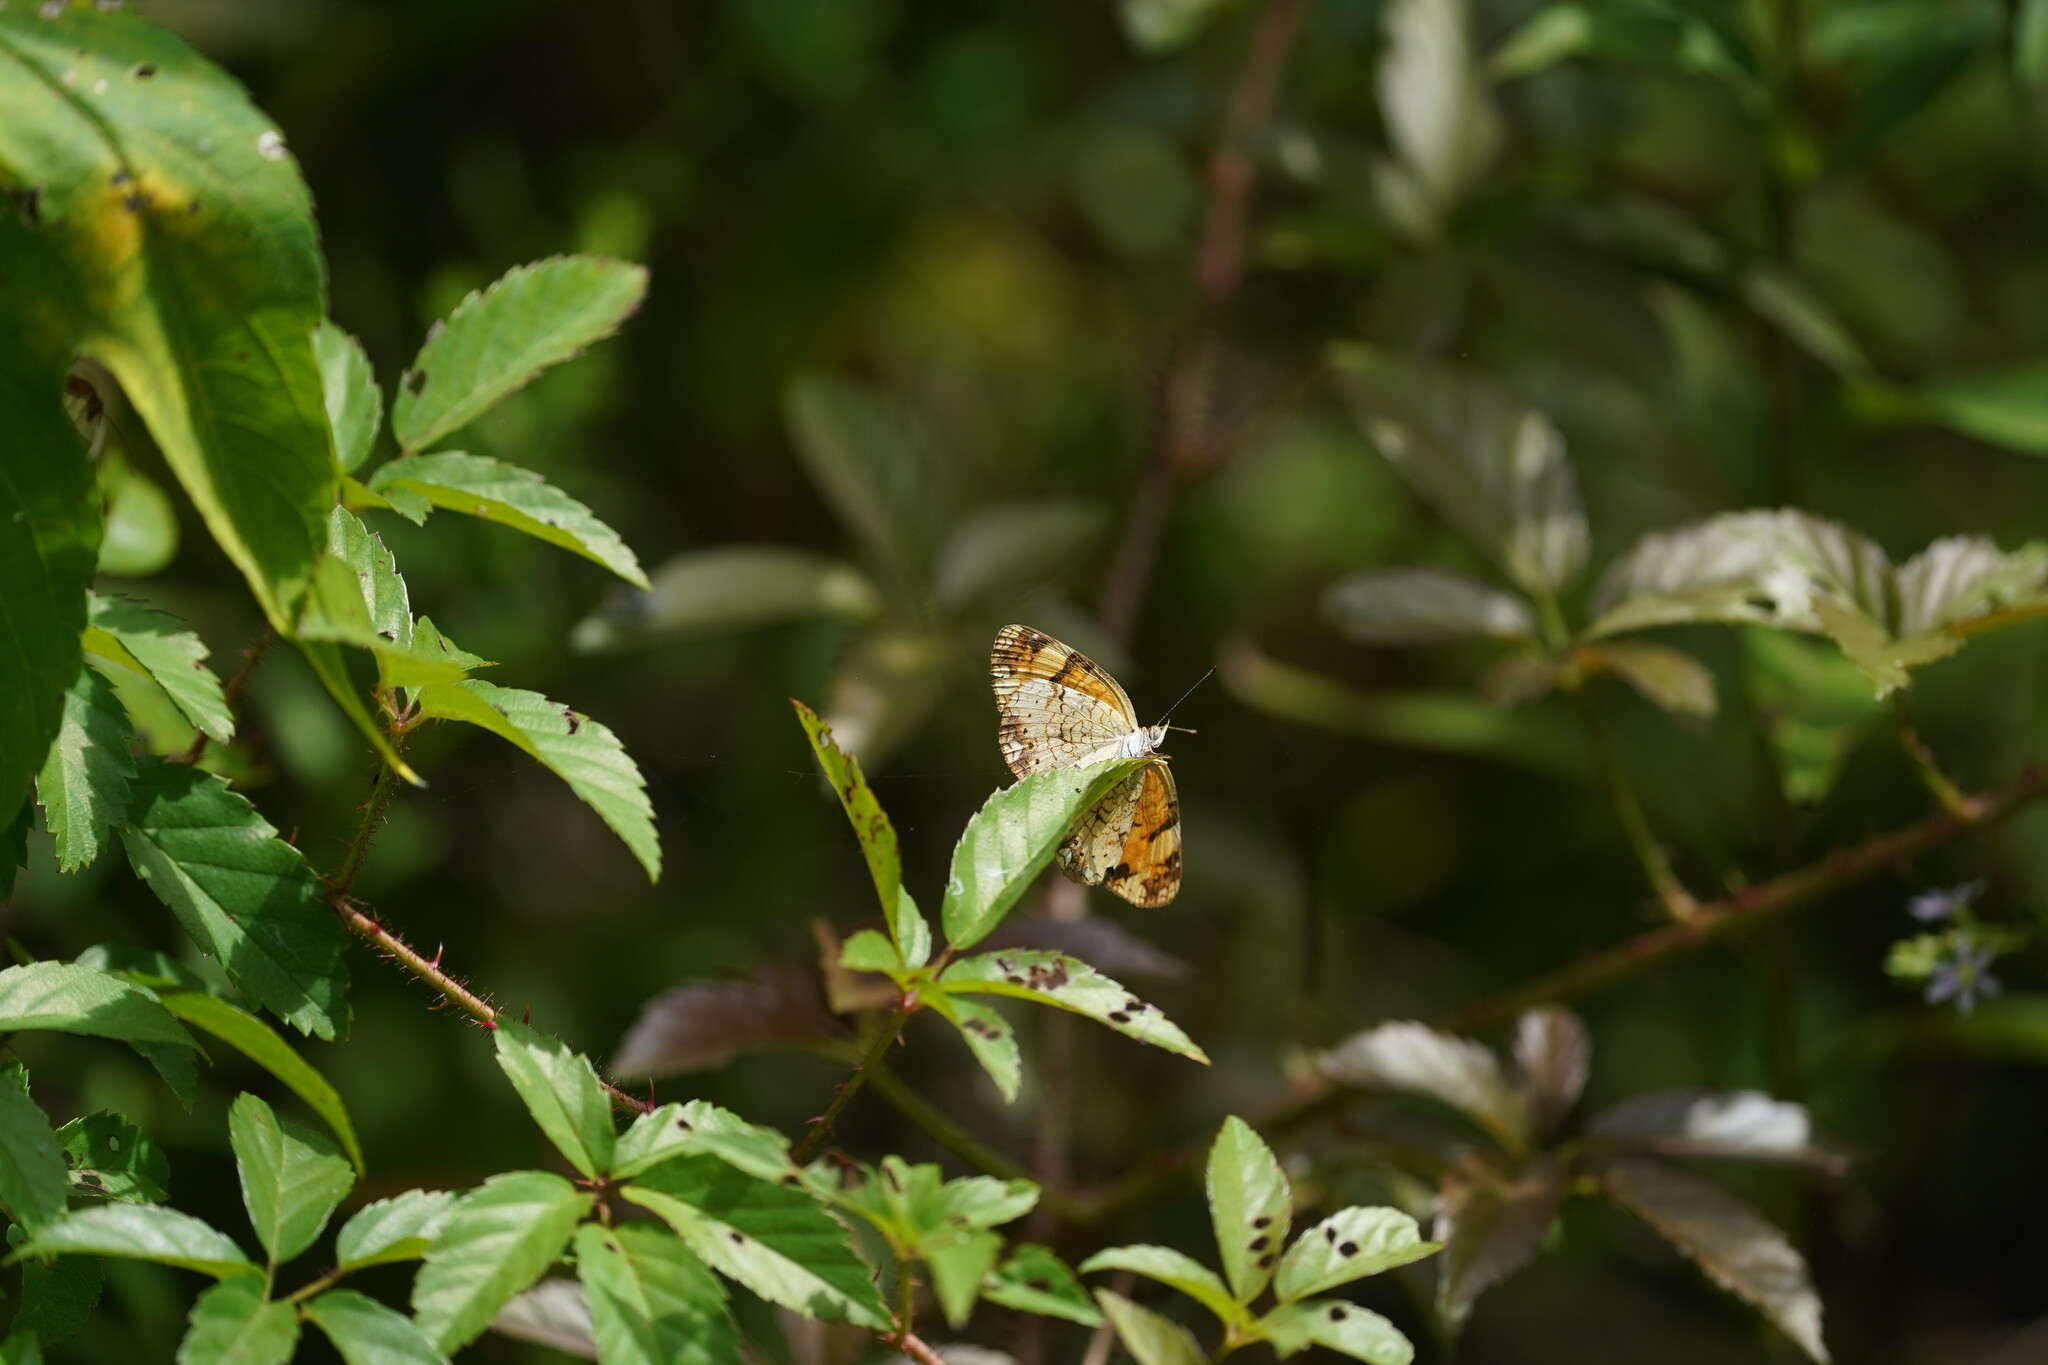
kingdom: Animalia
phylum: Arthropoda
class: Insecta
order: Lepidoptera
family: Nymphalidae
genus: Phyciodes
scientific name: Phyciodes tharos
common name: Pearl crescent
